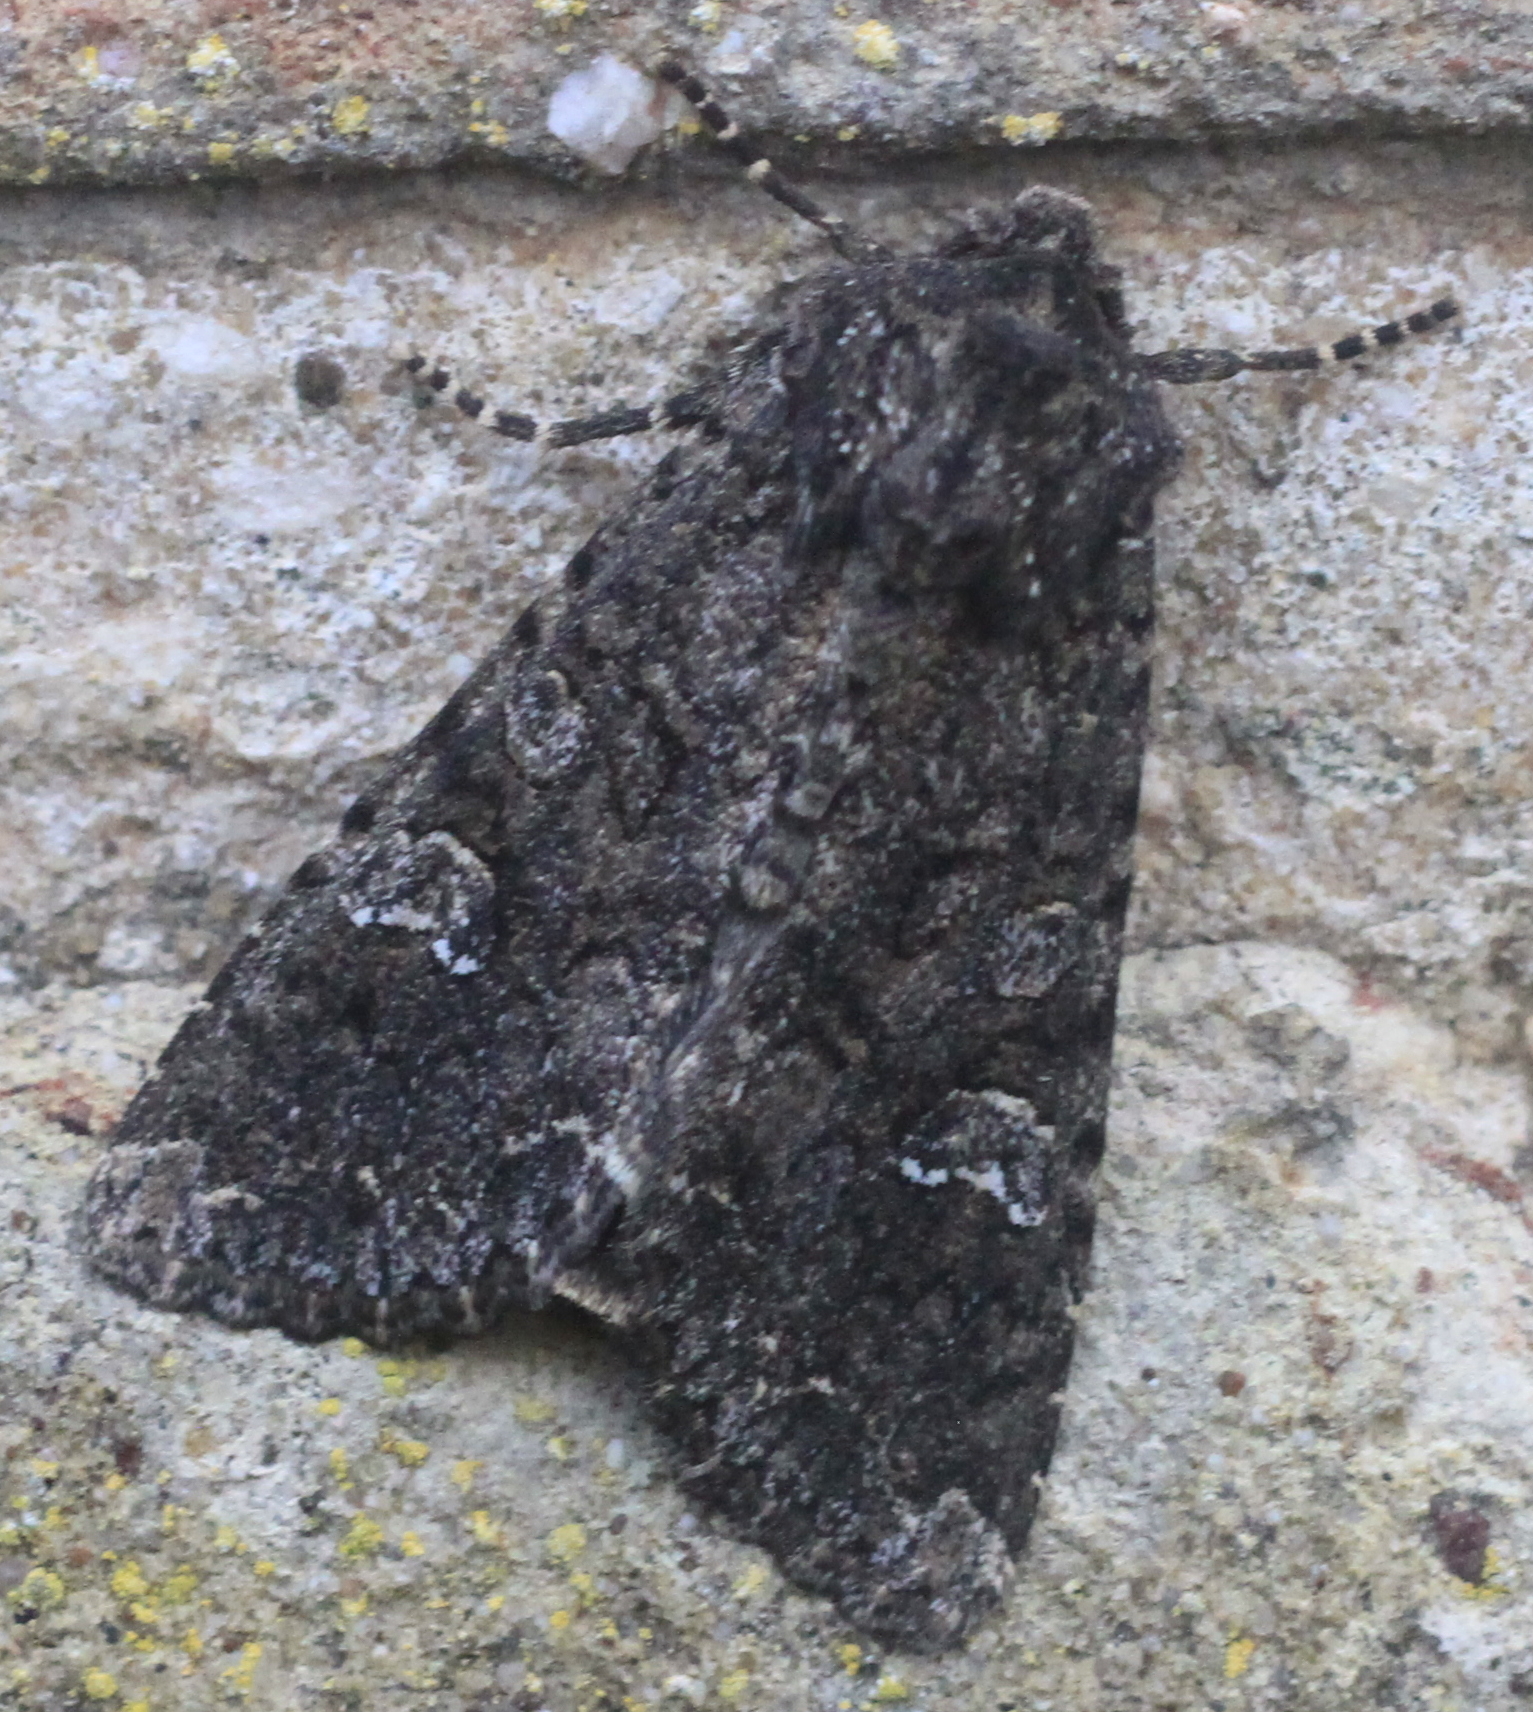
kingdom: Animalia
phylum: Arthropoda
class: Insecta
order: Lepidoptera
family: Noctuidae
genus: Mamestra
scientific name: Mamestra brassicae
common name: Cabbage moth
